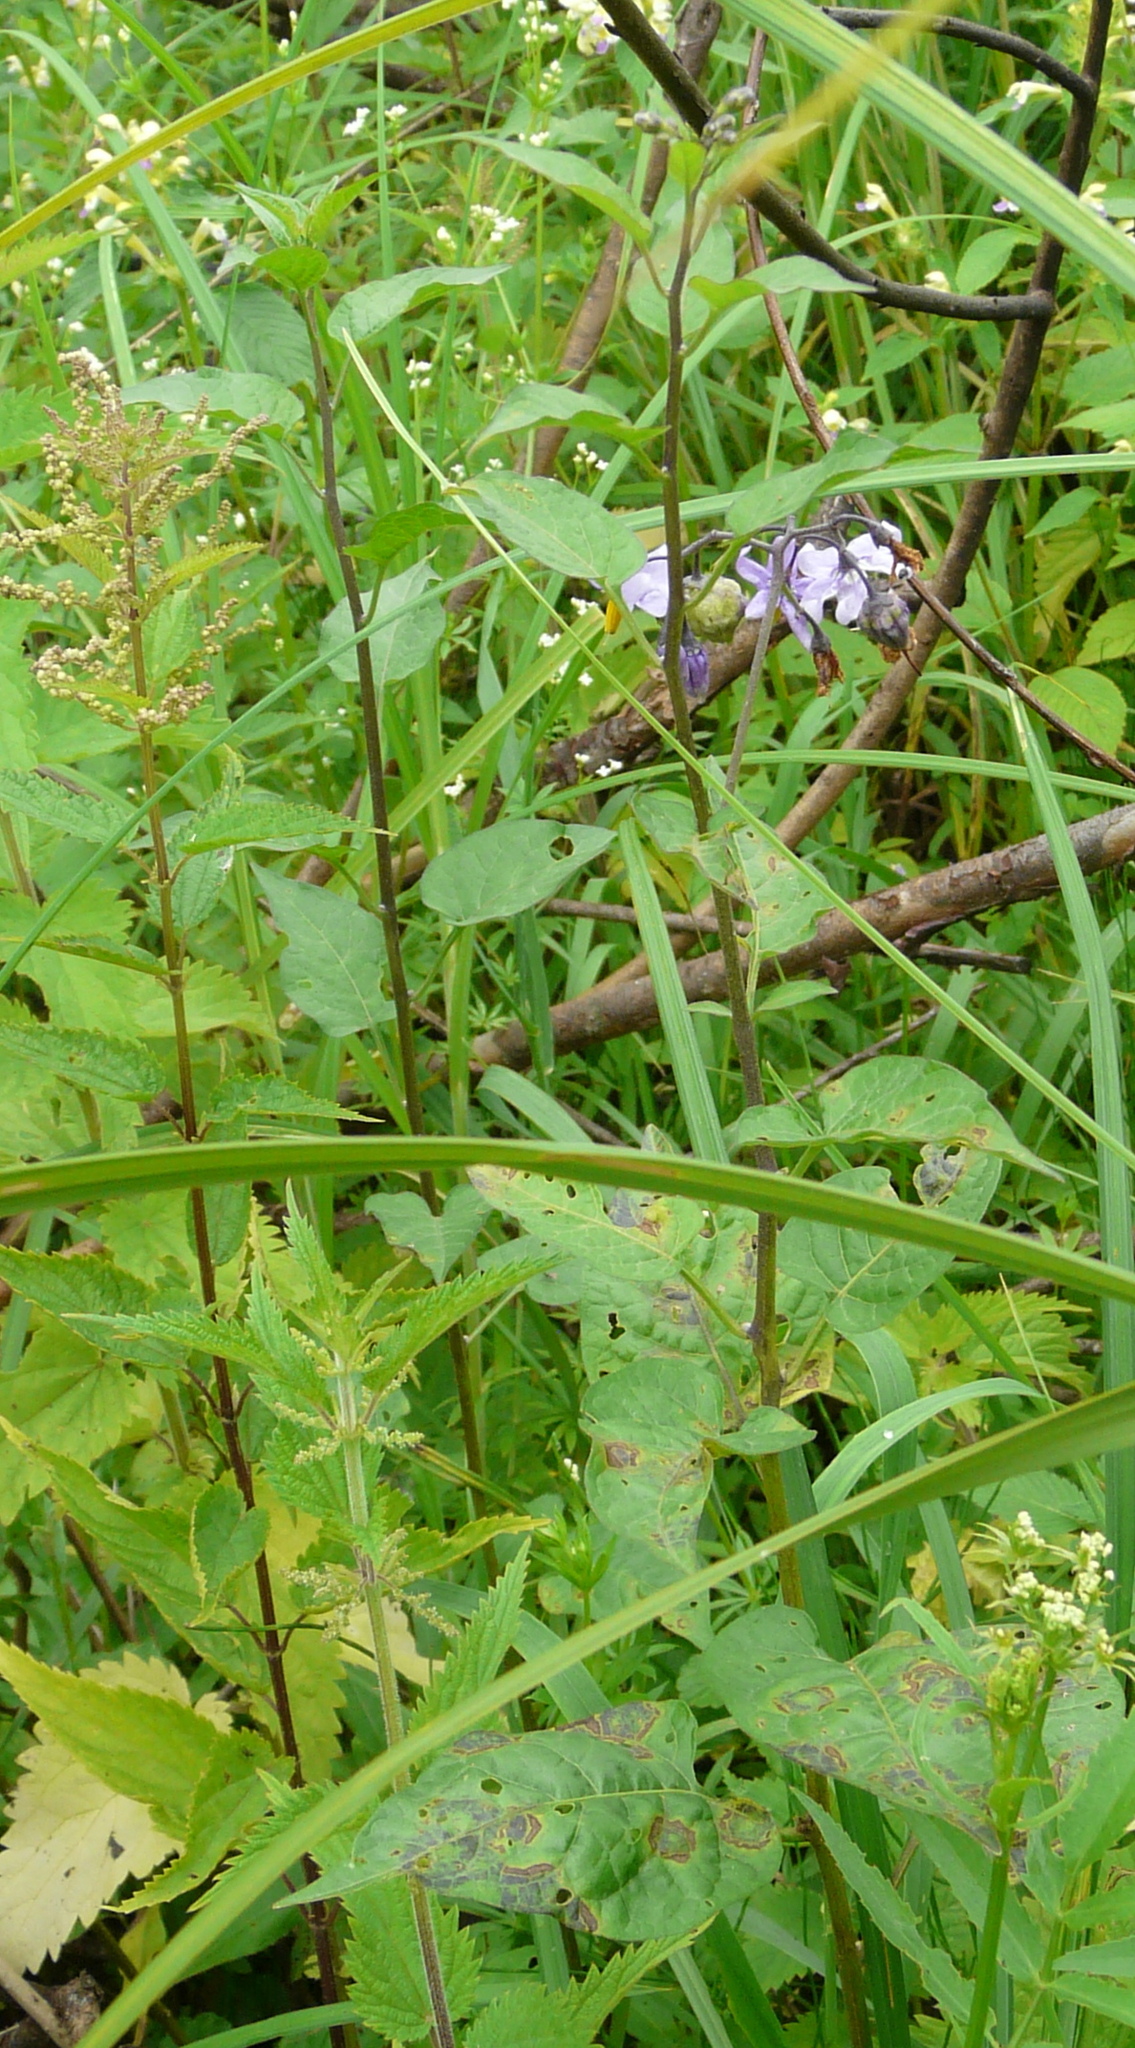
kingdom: Plantae
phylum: Tracheophyta
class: Magnoliopsida
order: Solanales
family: Solanaceae
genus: Solanum
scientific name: Solanum dulcamara
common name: Climbing nightshade
